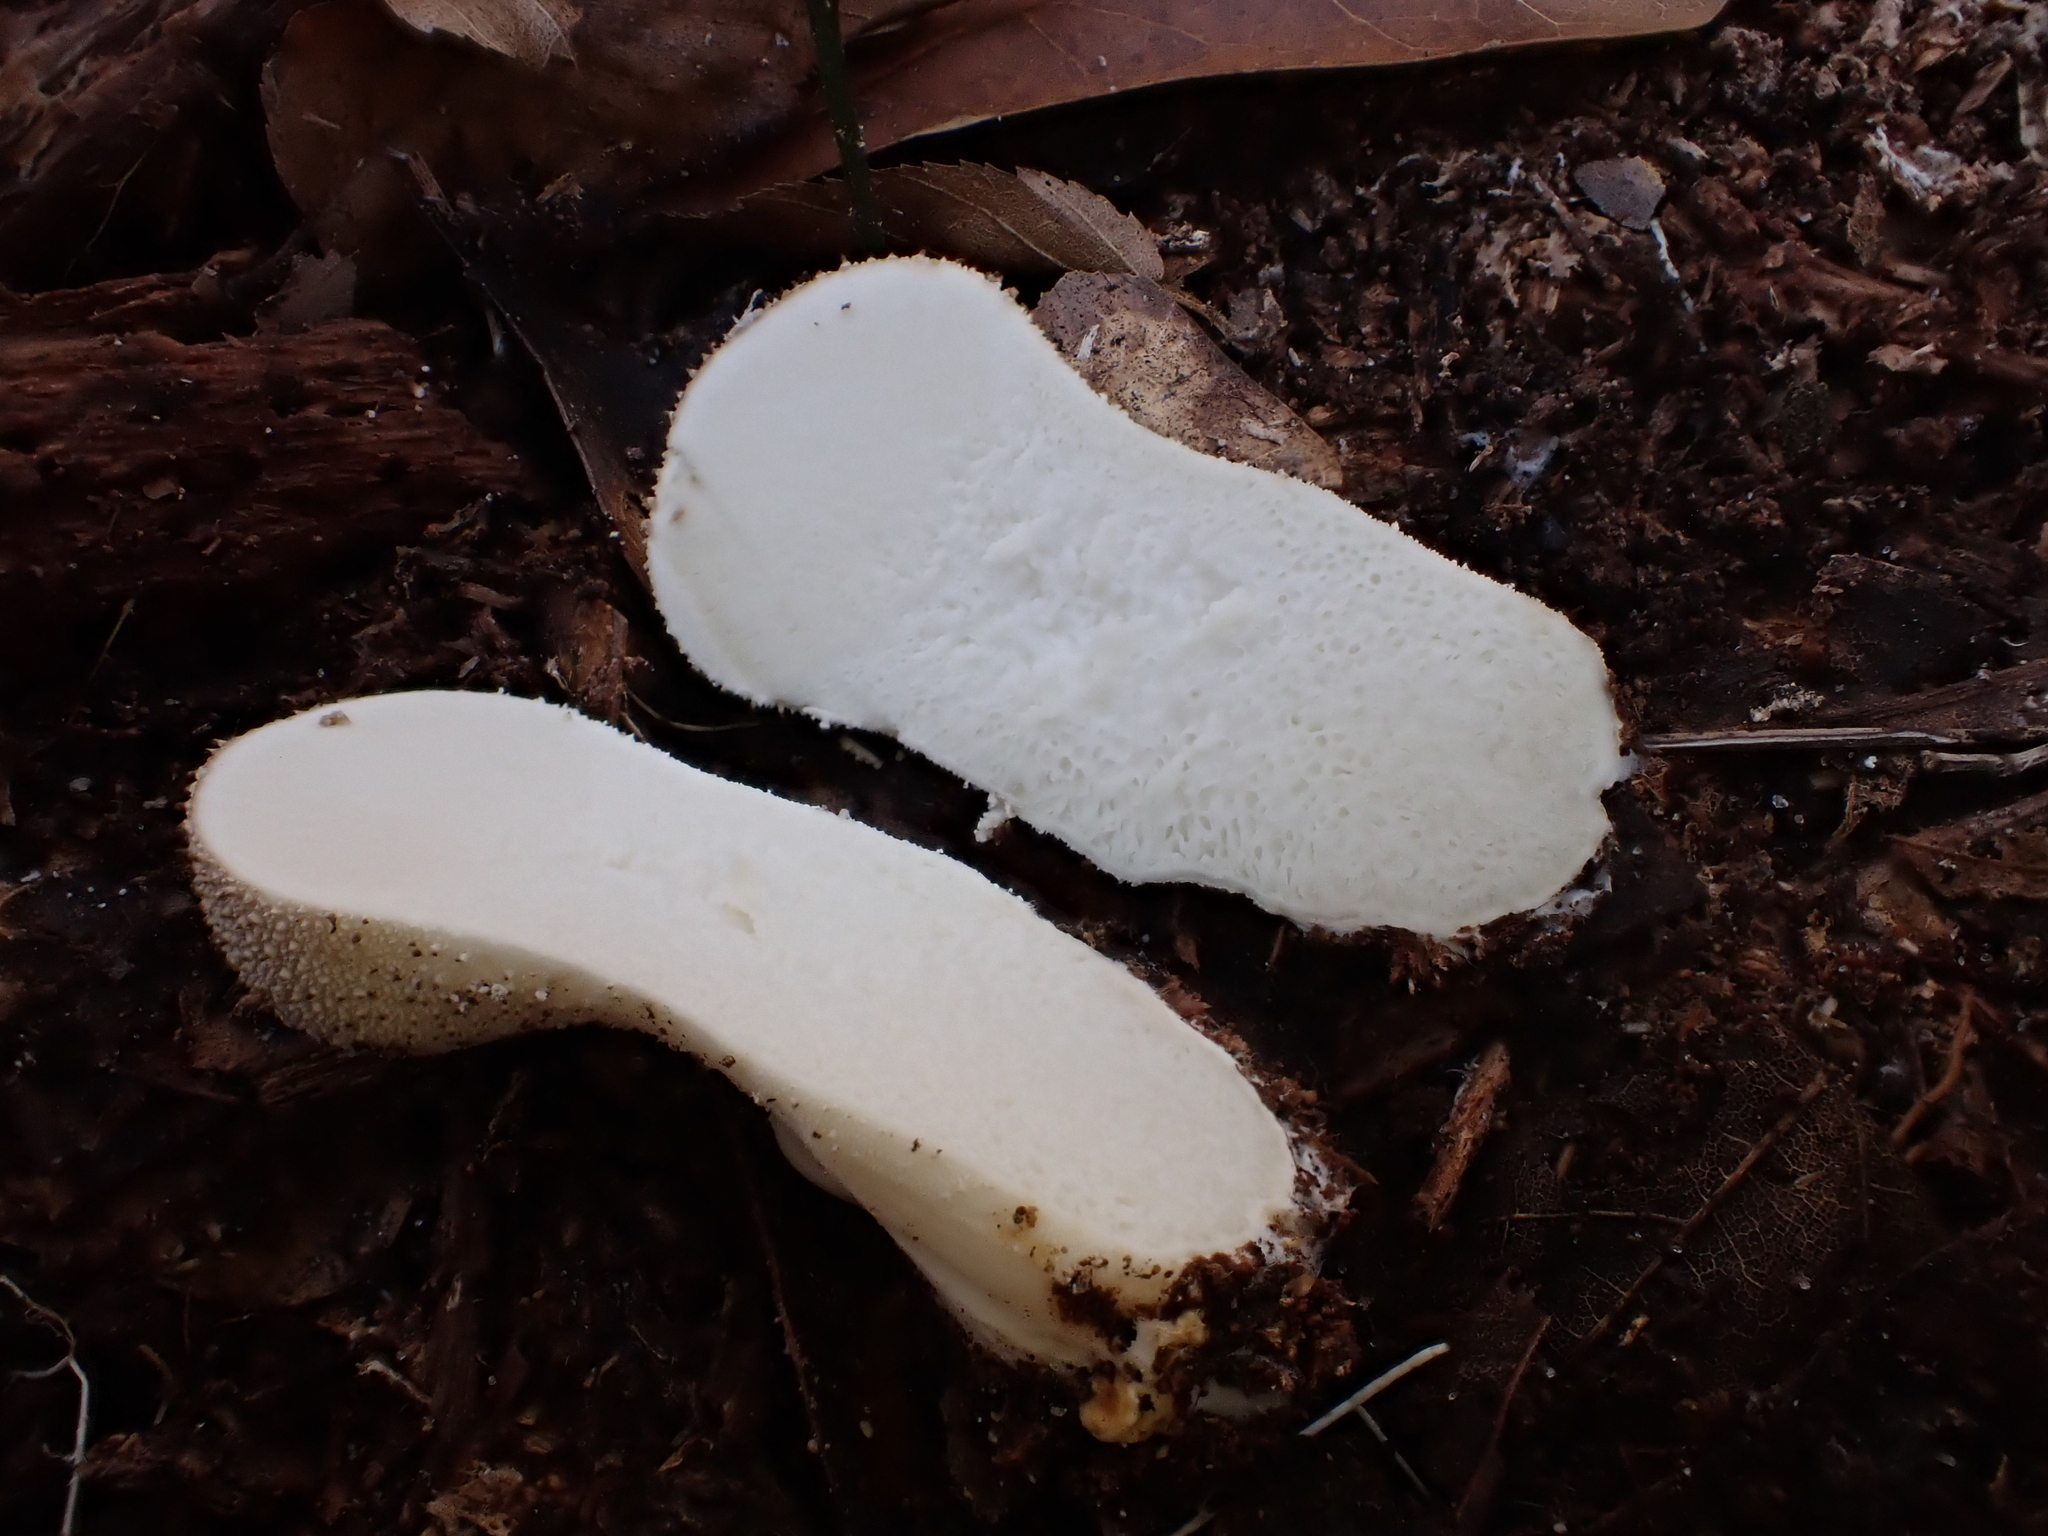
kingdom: Fungi
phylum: Basidiomycota
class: Agaricomycetes
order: Agaricales
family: Lycoperdaceae
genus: Lycoperdon
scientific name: Lycoperdon perlatum
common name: Common puffball
